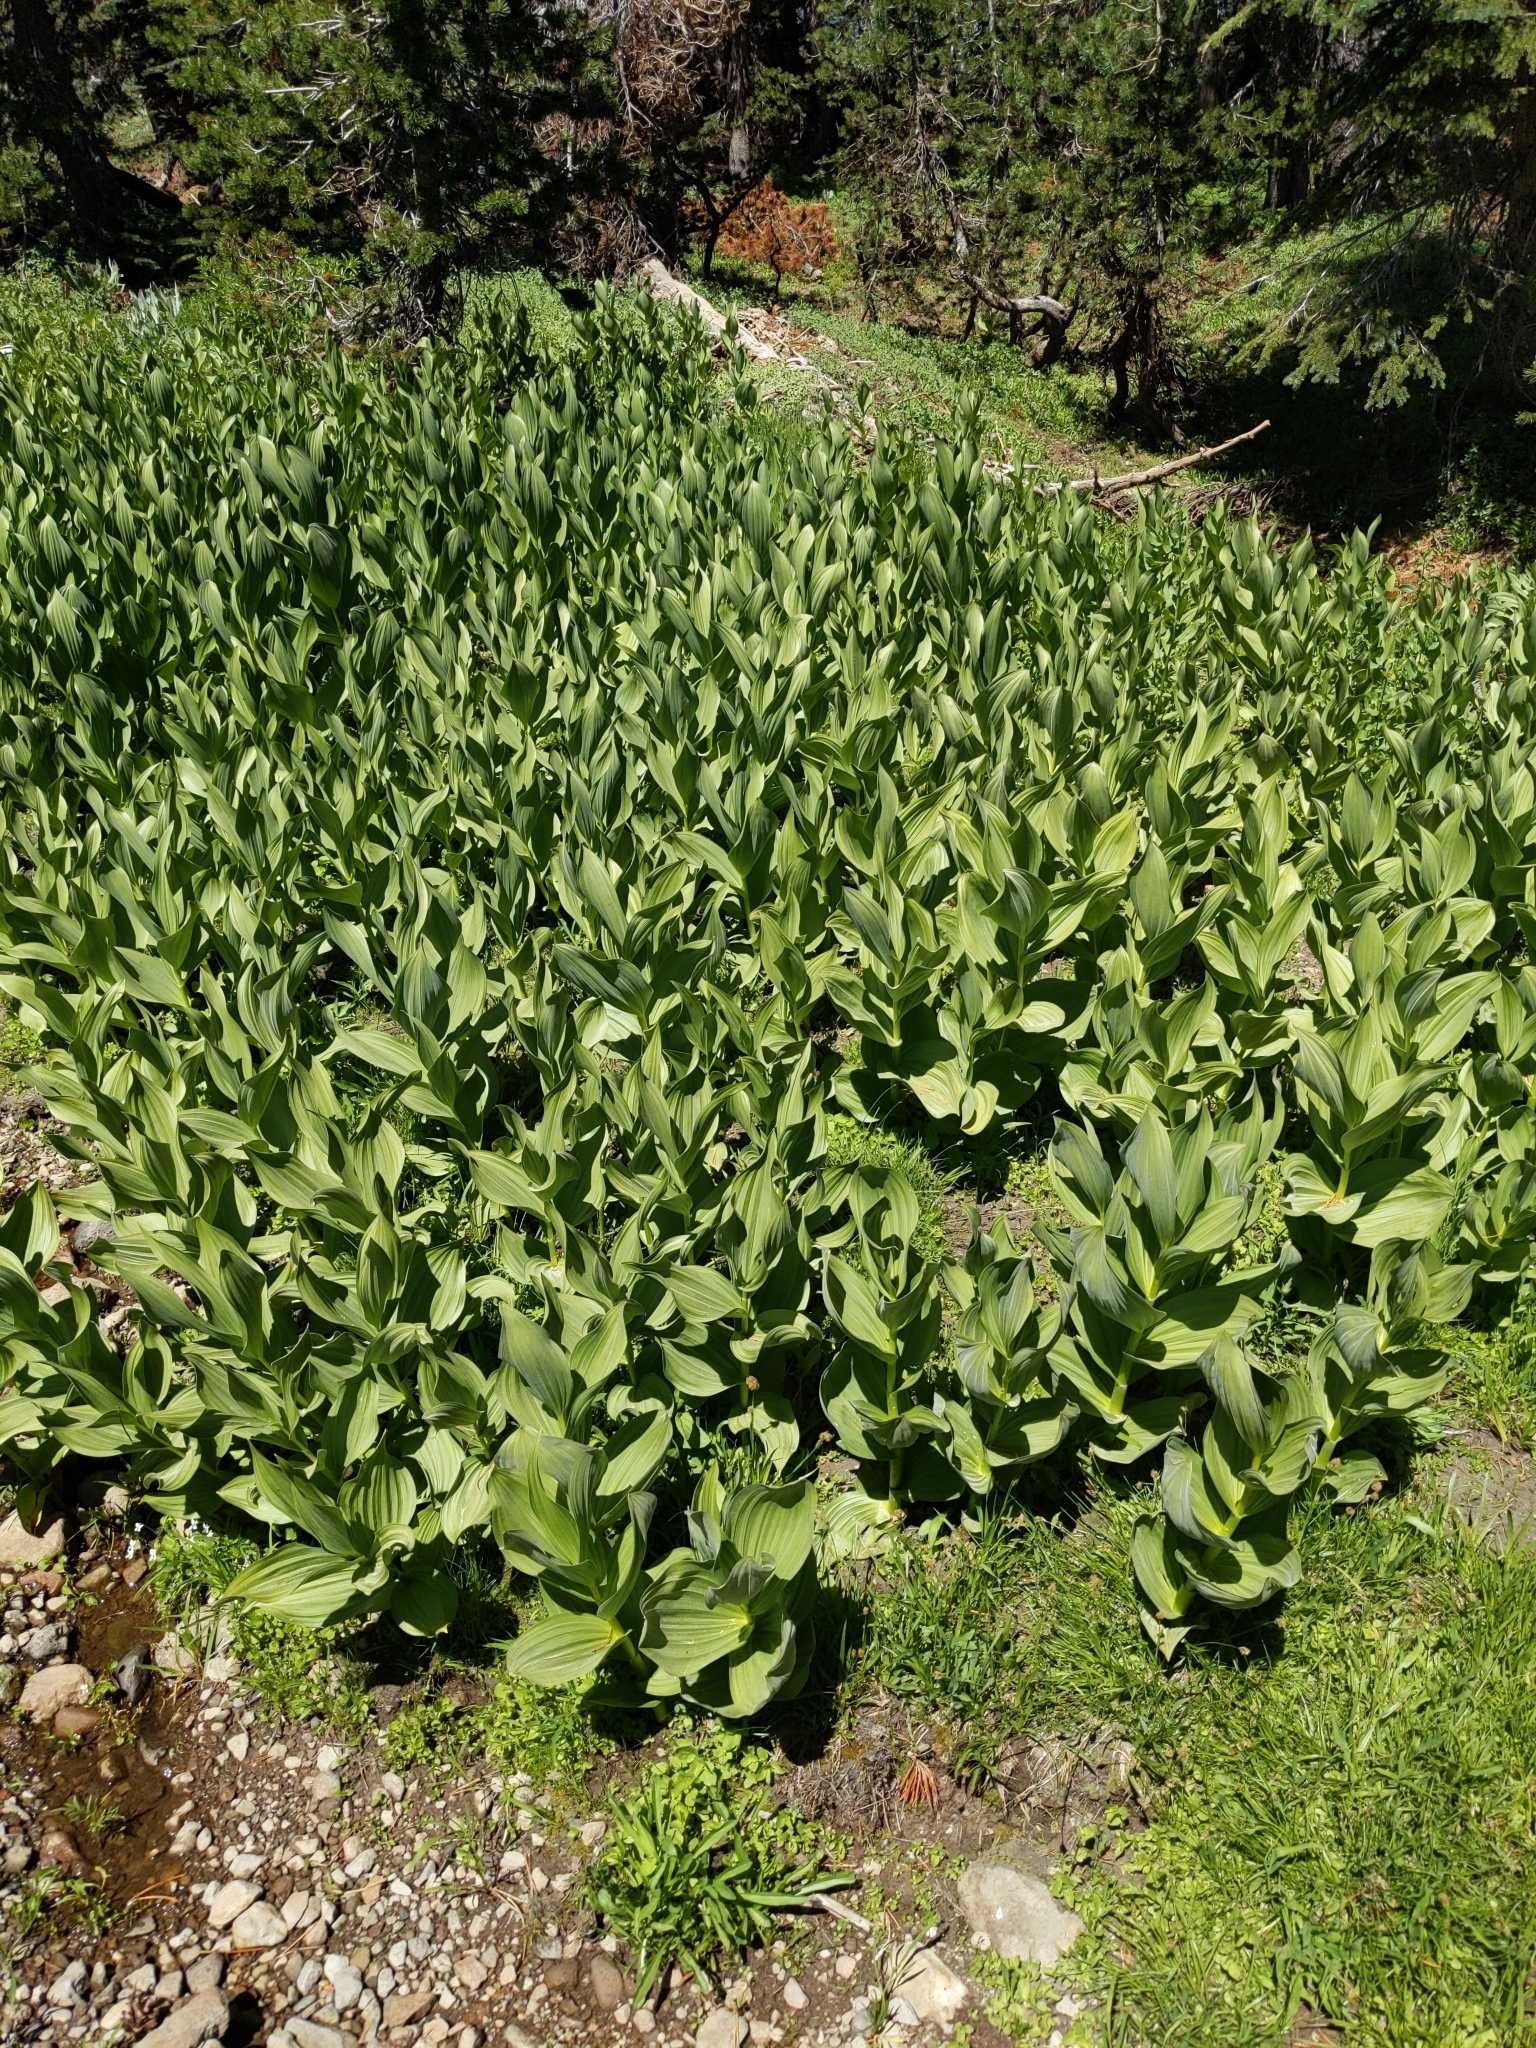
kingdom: Plantae
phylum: Tracheophyta
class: Liliopsida
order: Liliales
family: Melanthiaceae
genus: Veratrum
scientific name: Veratrum californicum
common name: California veratrum
